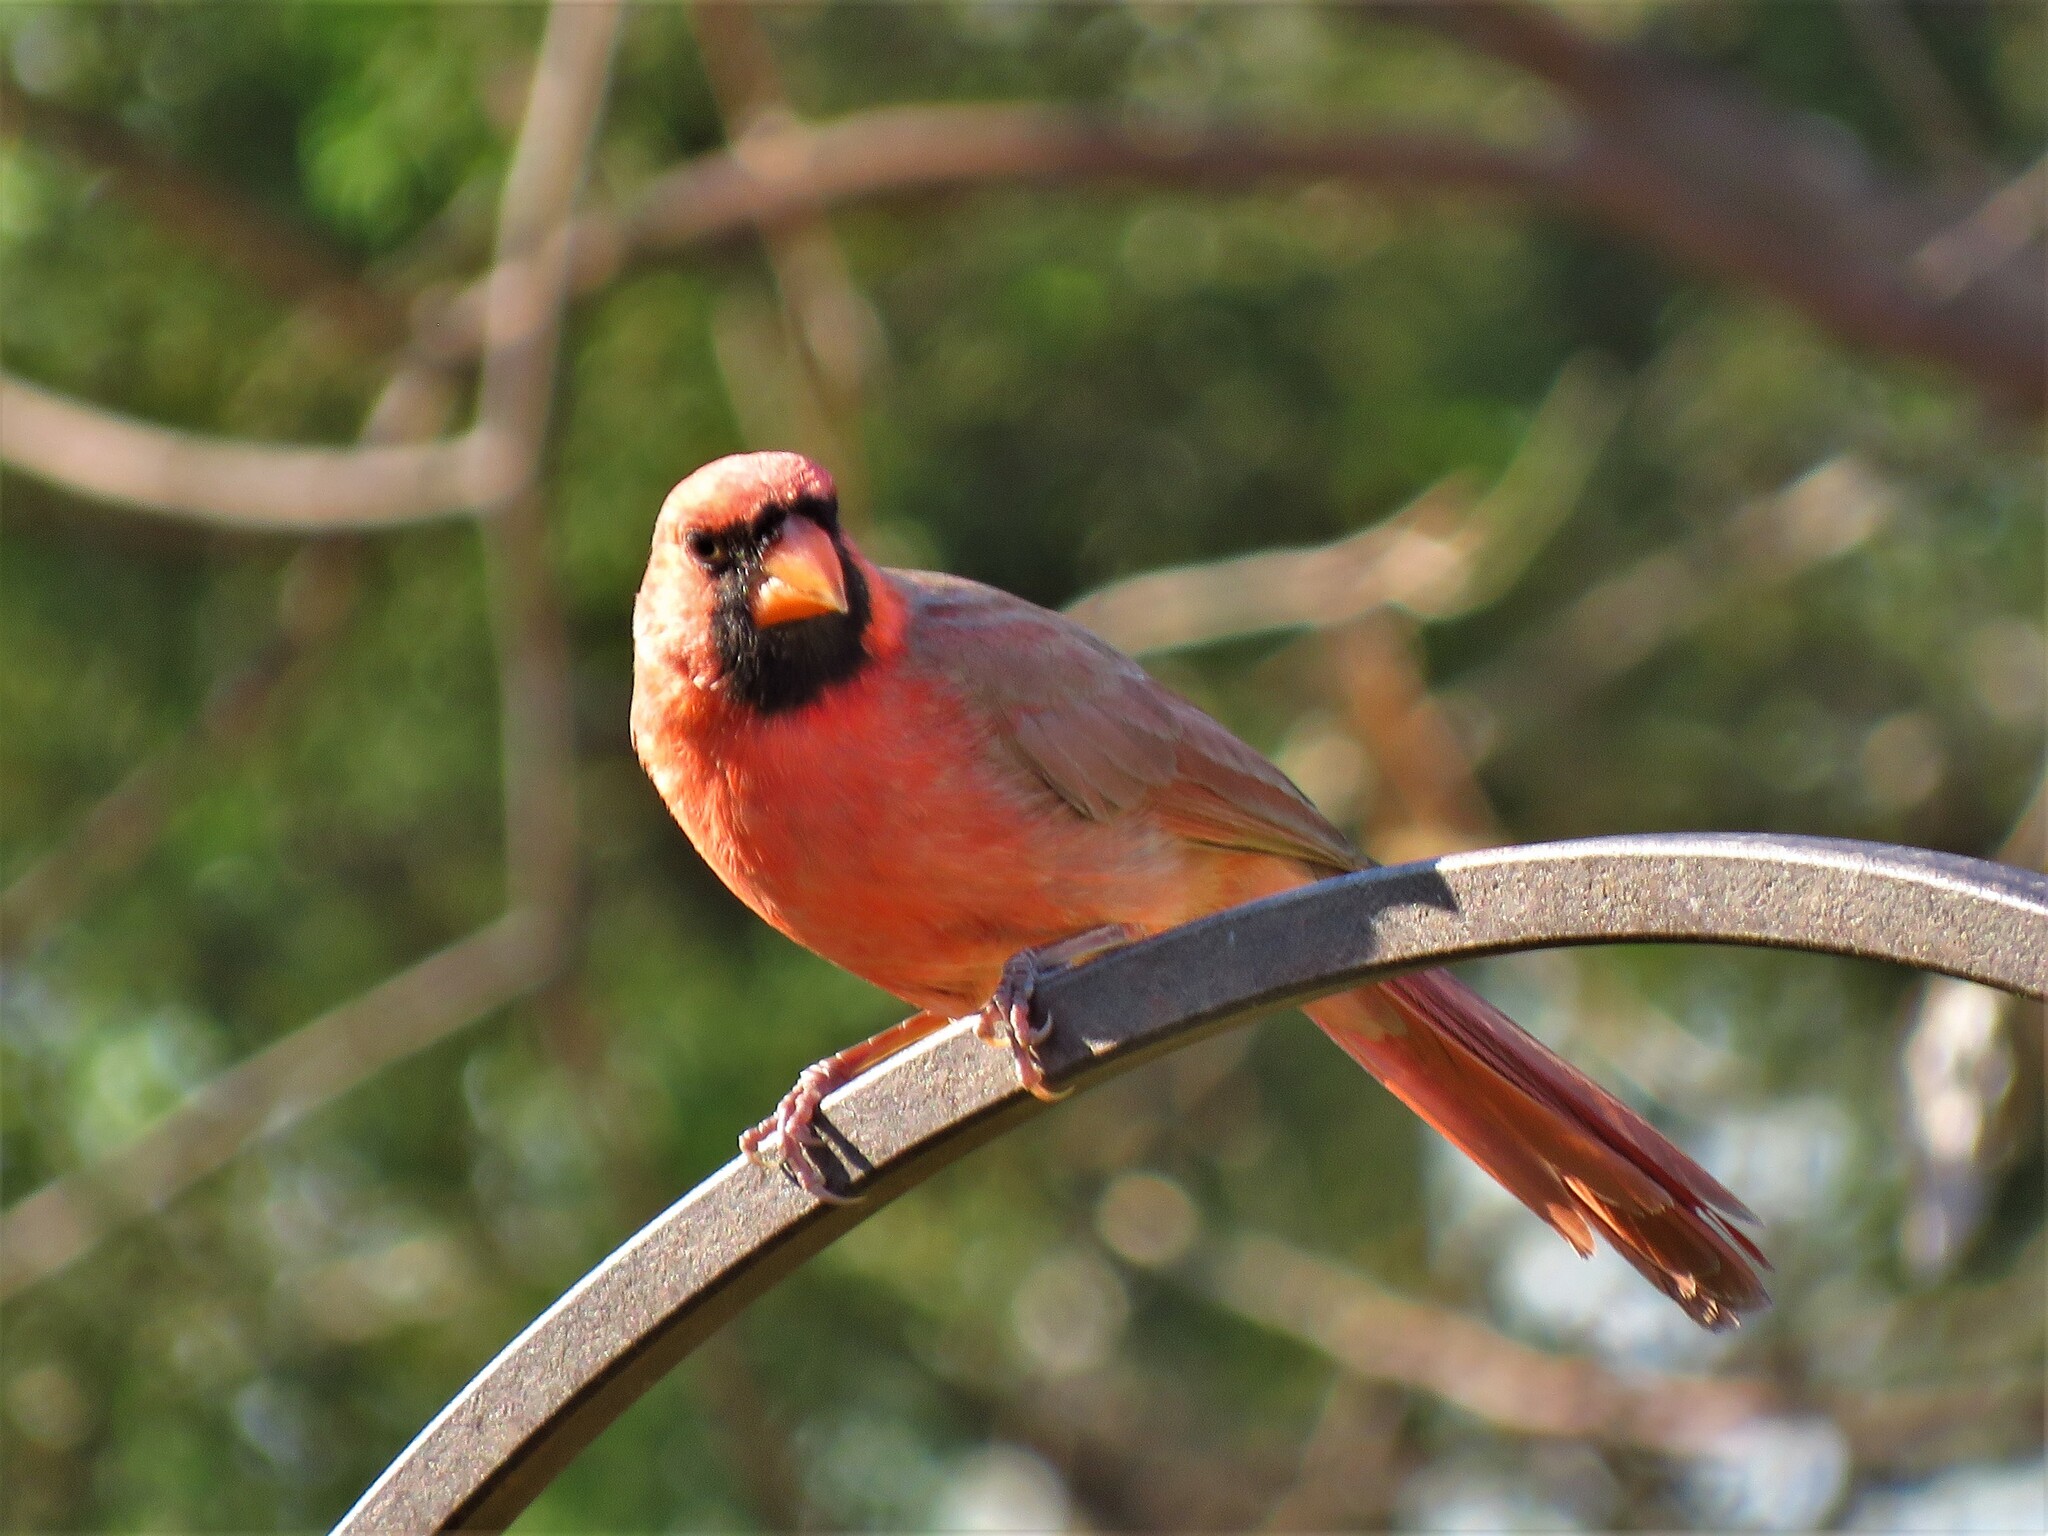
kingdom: Animalia
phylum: Chordata
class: Aves
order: Passeriformes
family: Cardinalidae
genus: Cardinalis
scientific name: Cardinalis cardinalis
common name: Northern cardinal
